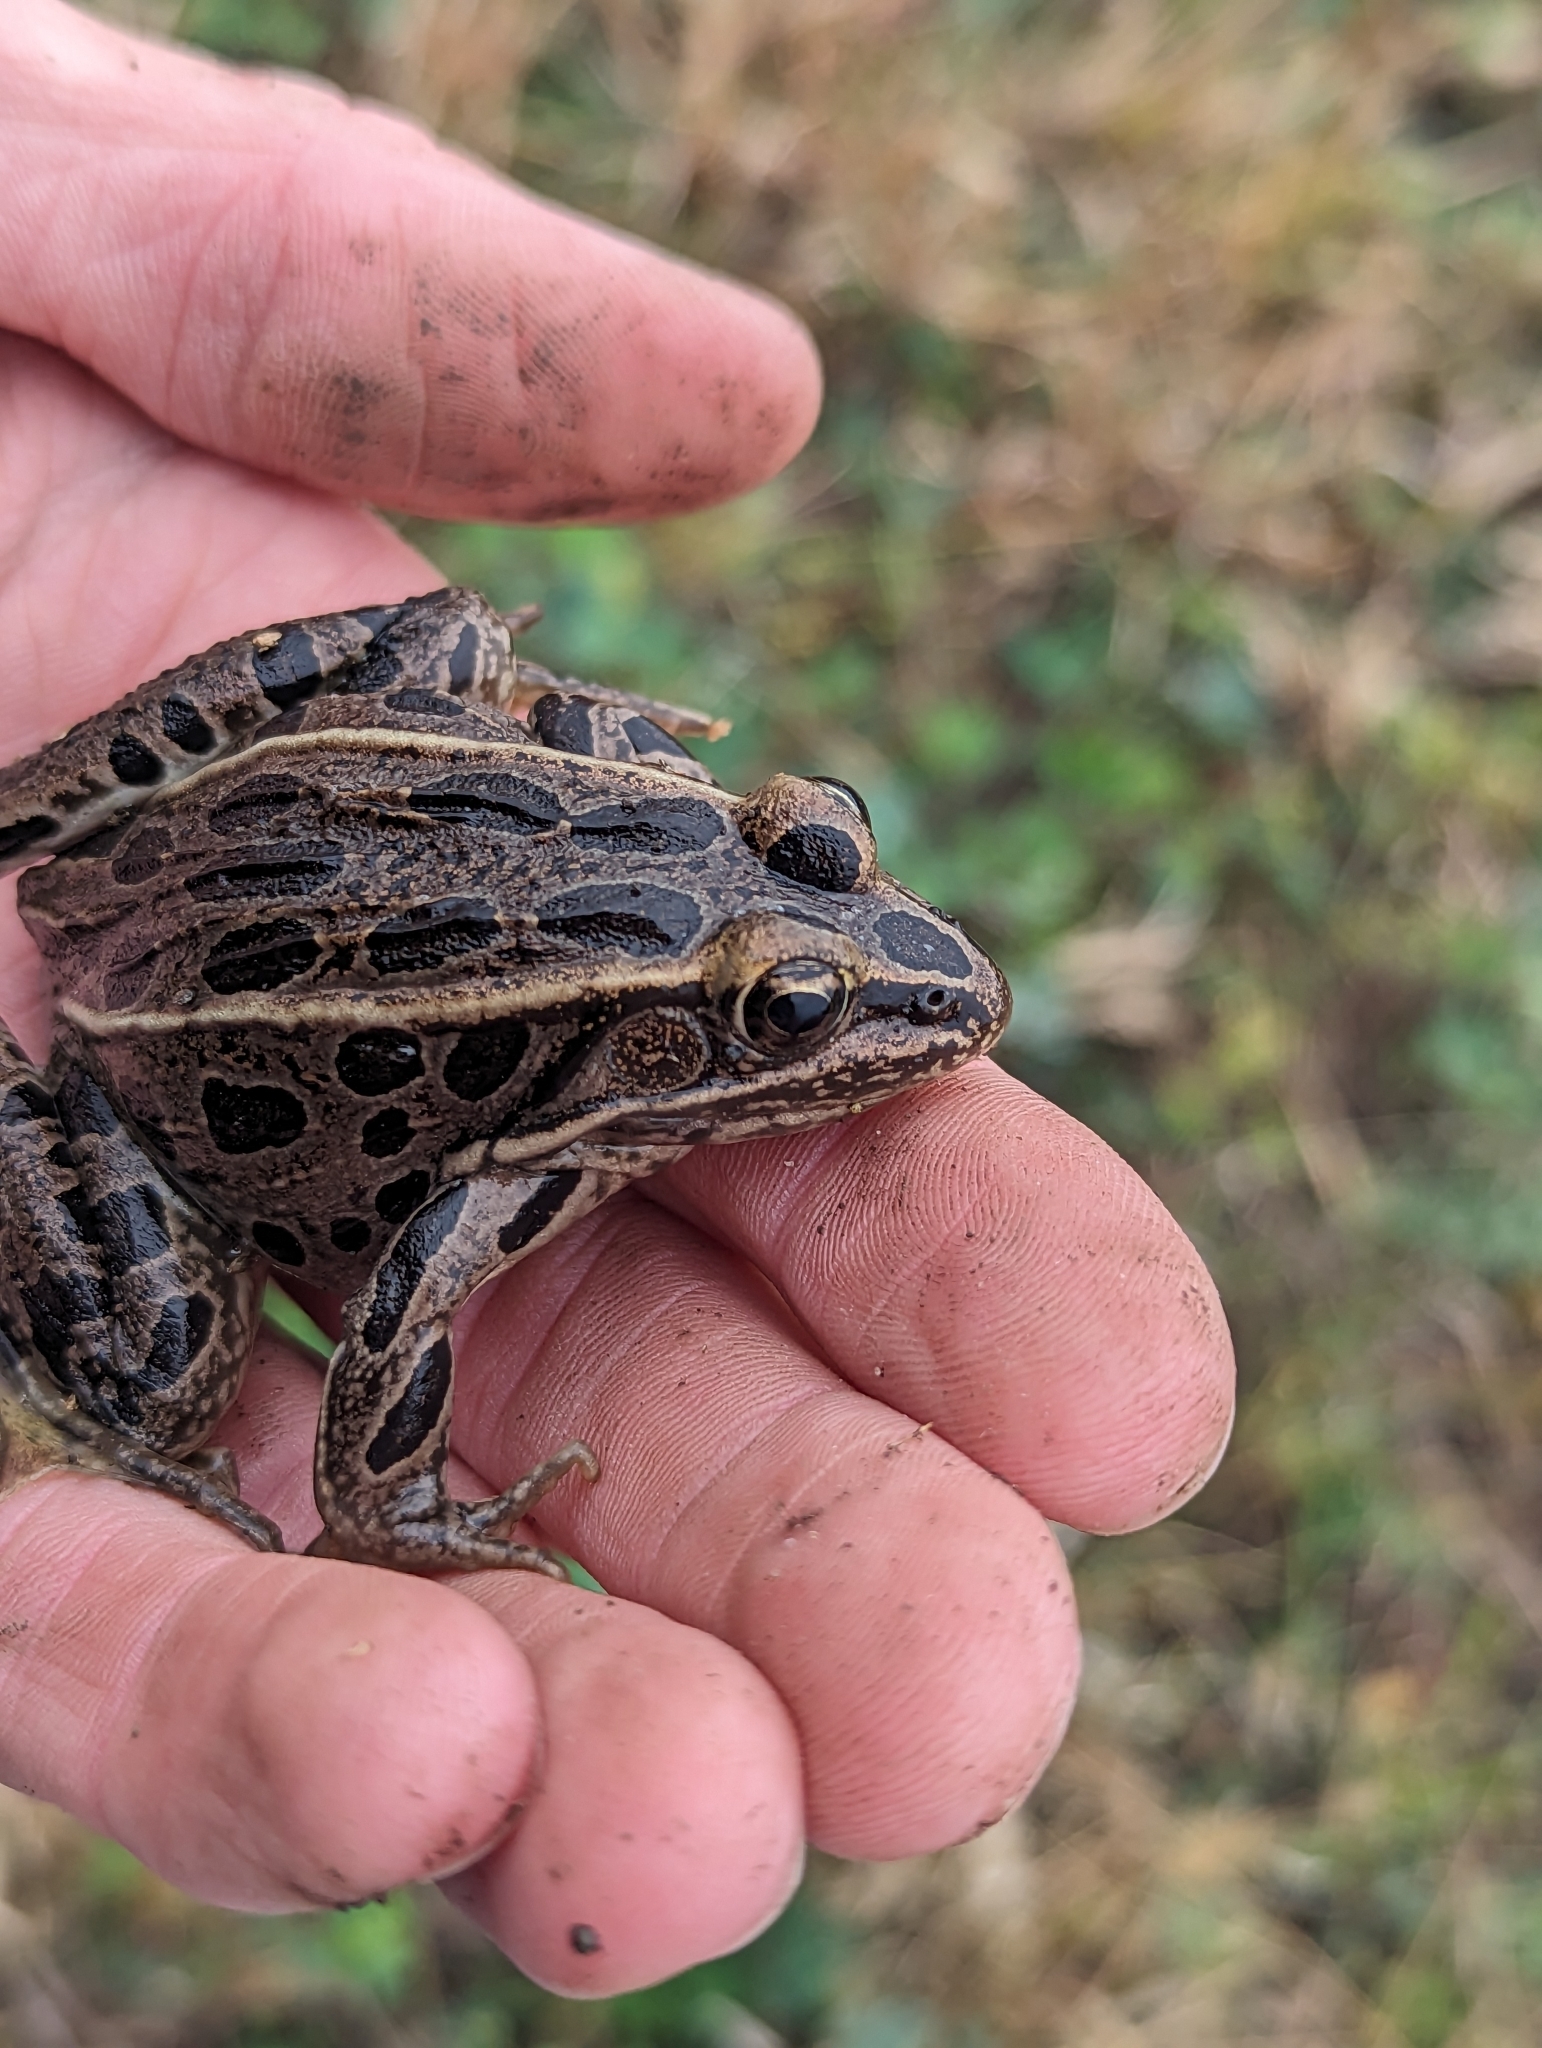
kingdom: Animalia
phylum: Chordata
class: Amphibia
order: Anura
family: Ranidae
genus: Lithobates
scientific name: Lithobates pipiens
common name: Northern leopard frog
